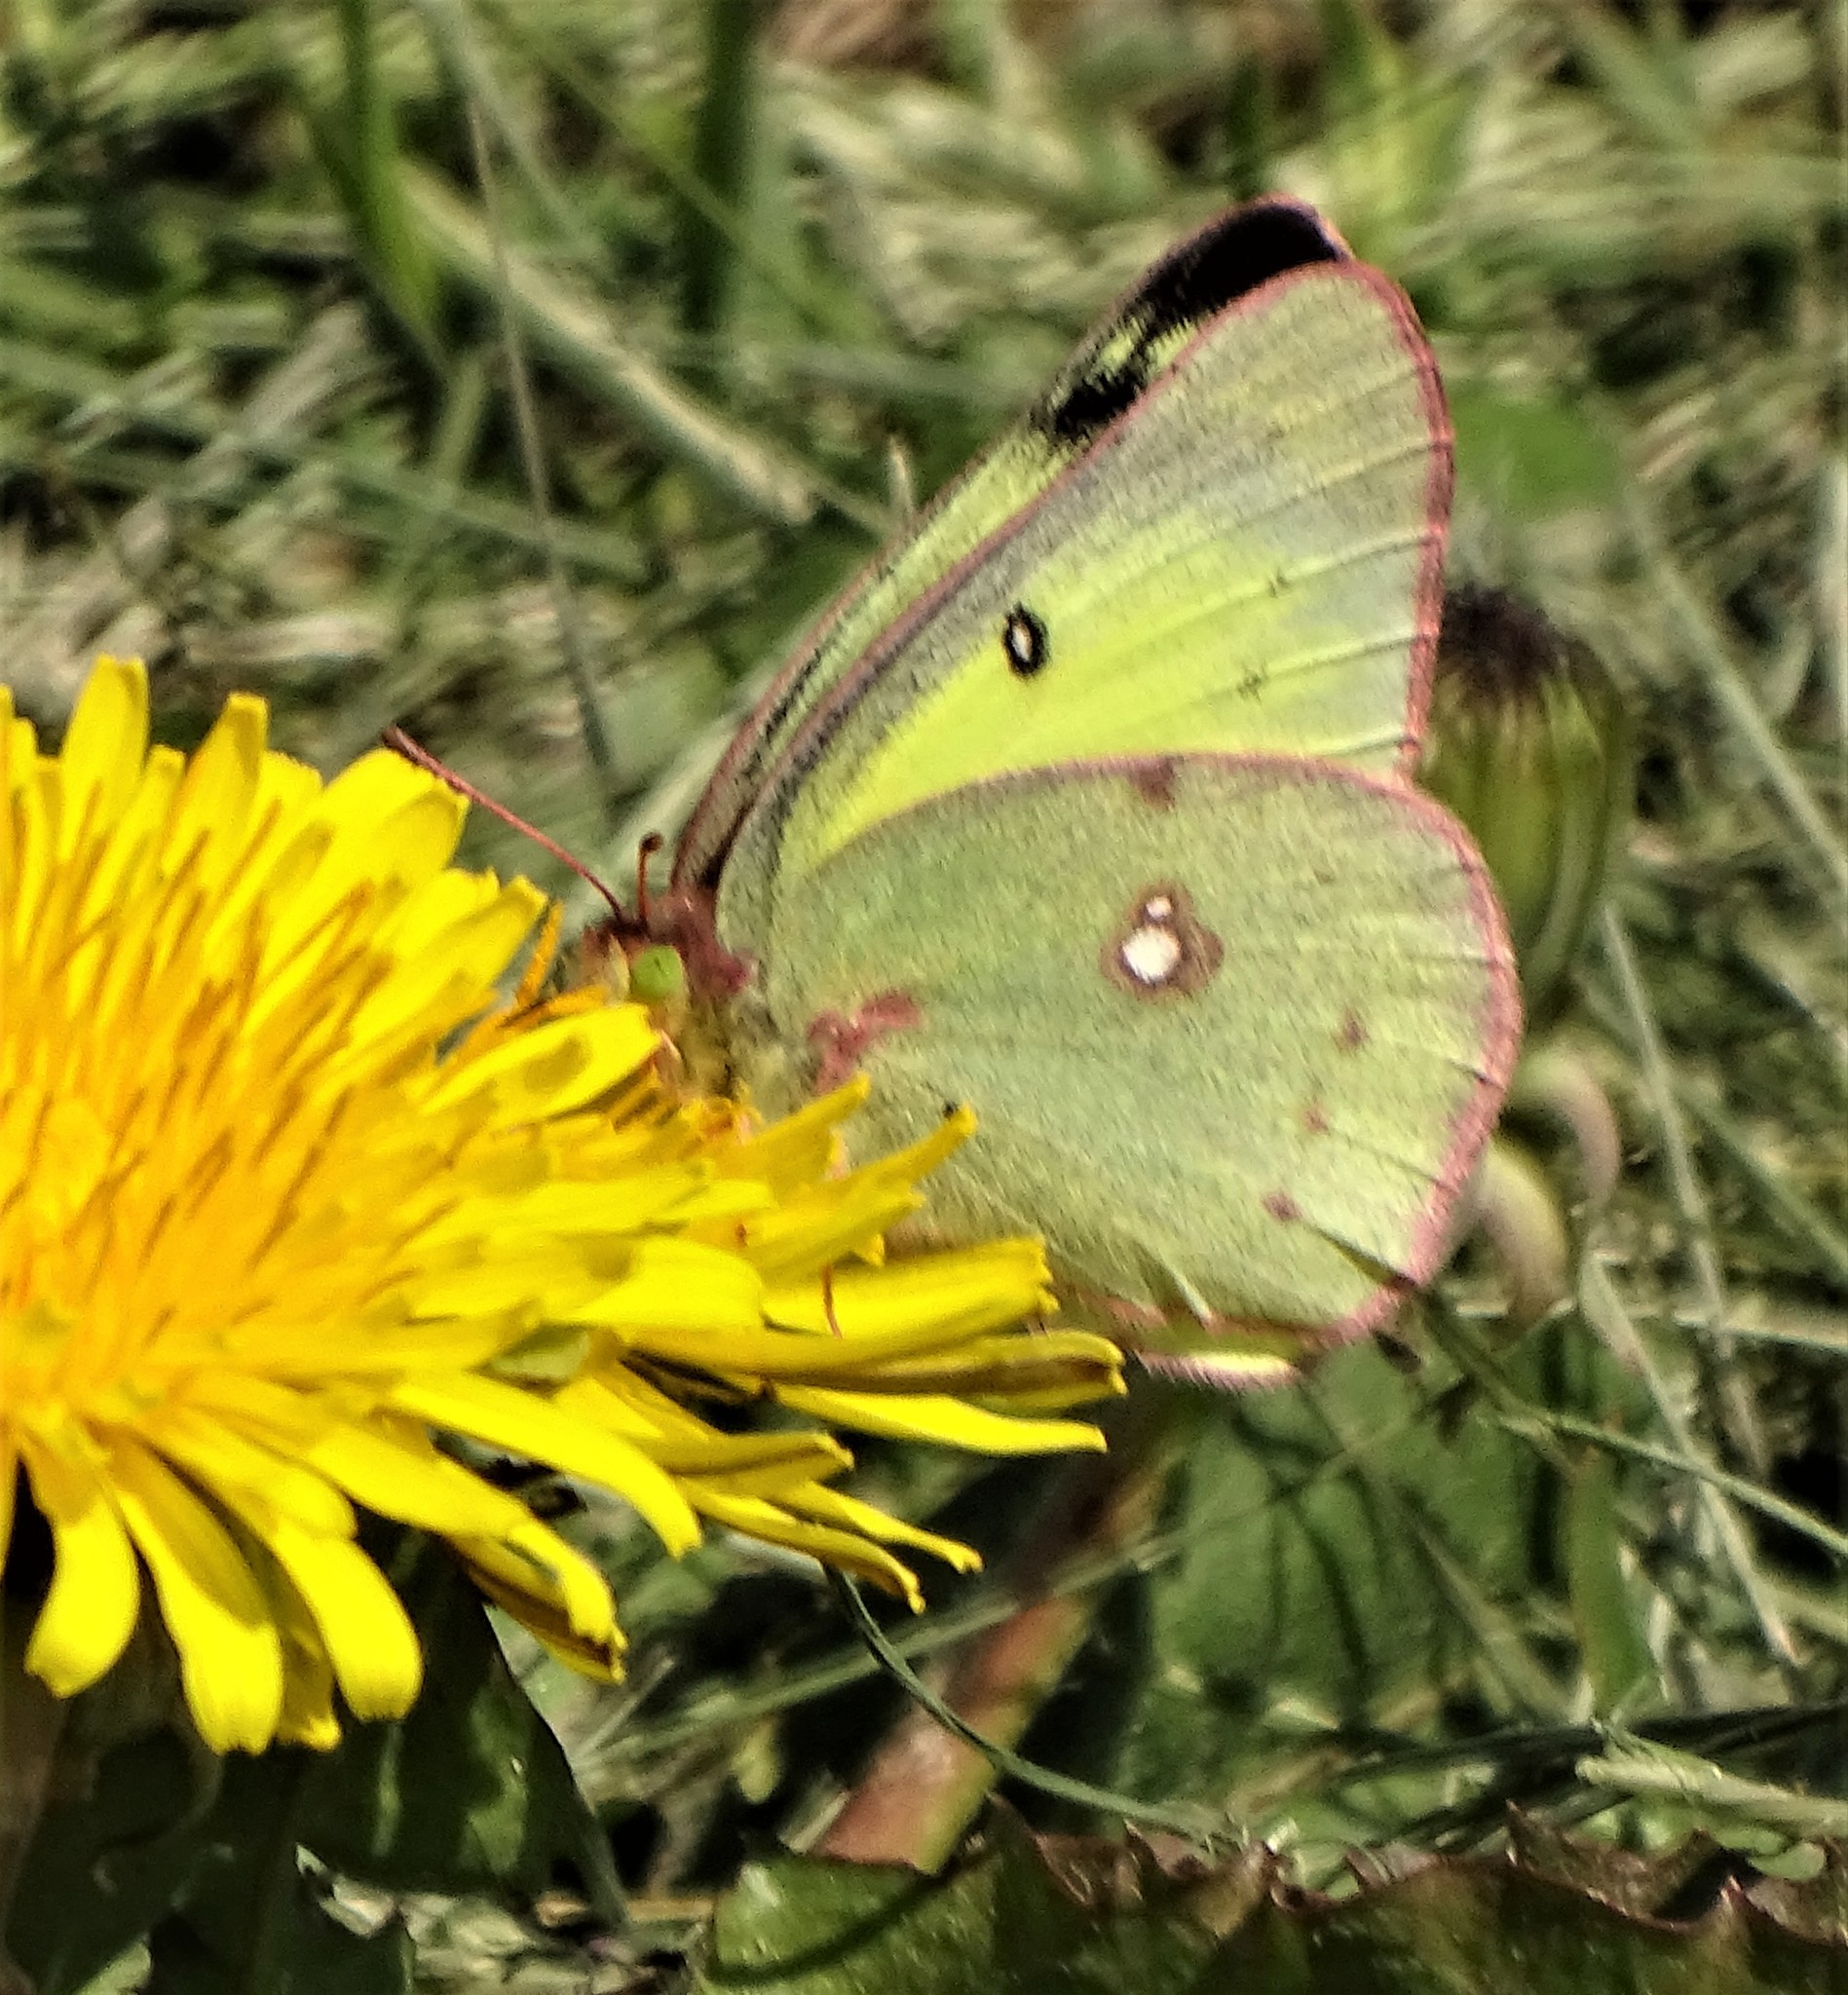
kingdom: Animalia
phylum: Arthropoda
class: Insecta
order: Lepidoptera
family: Pieridae
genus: Colias
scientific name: Colias philodice
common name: Clouded sulphur
